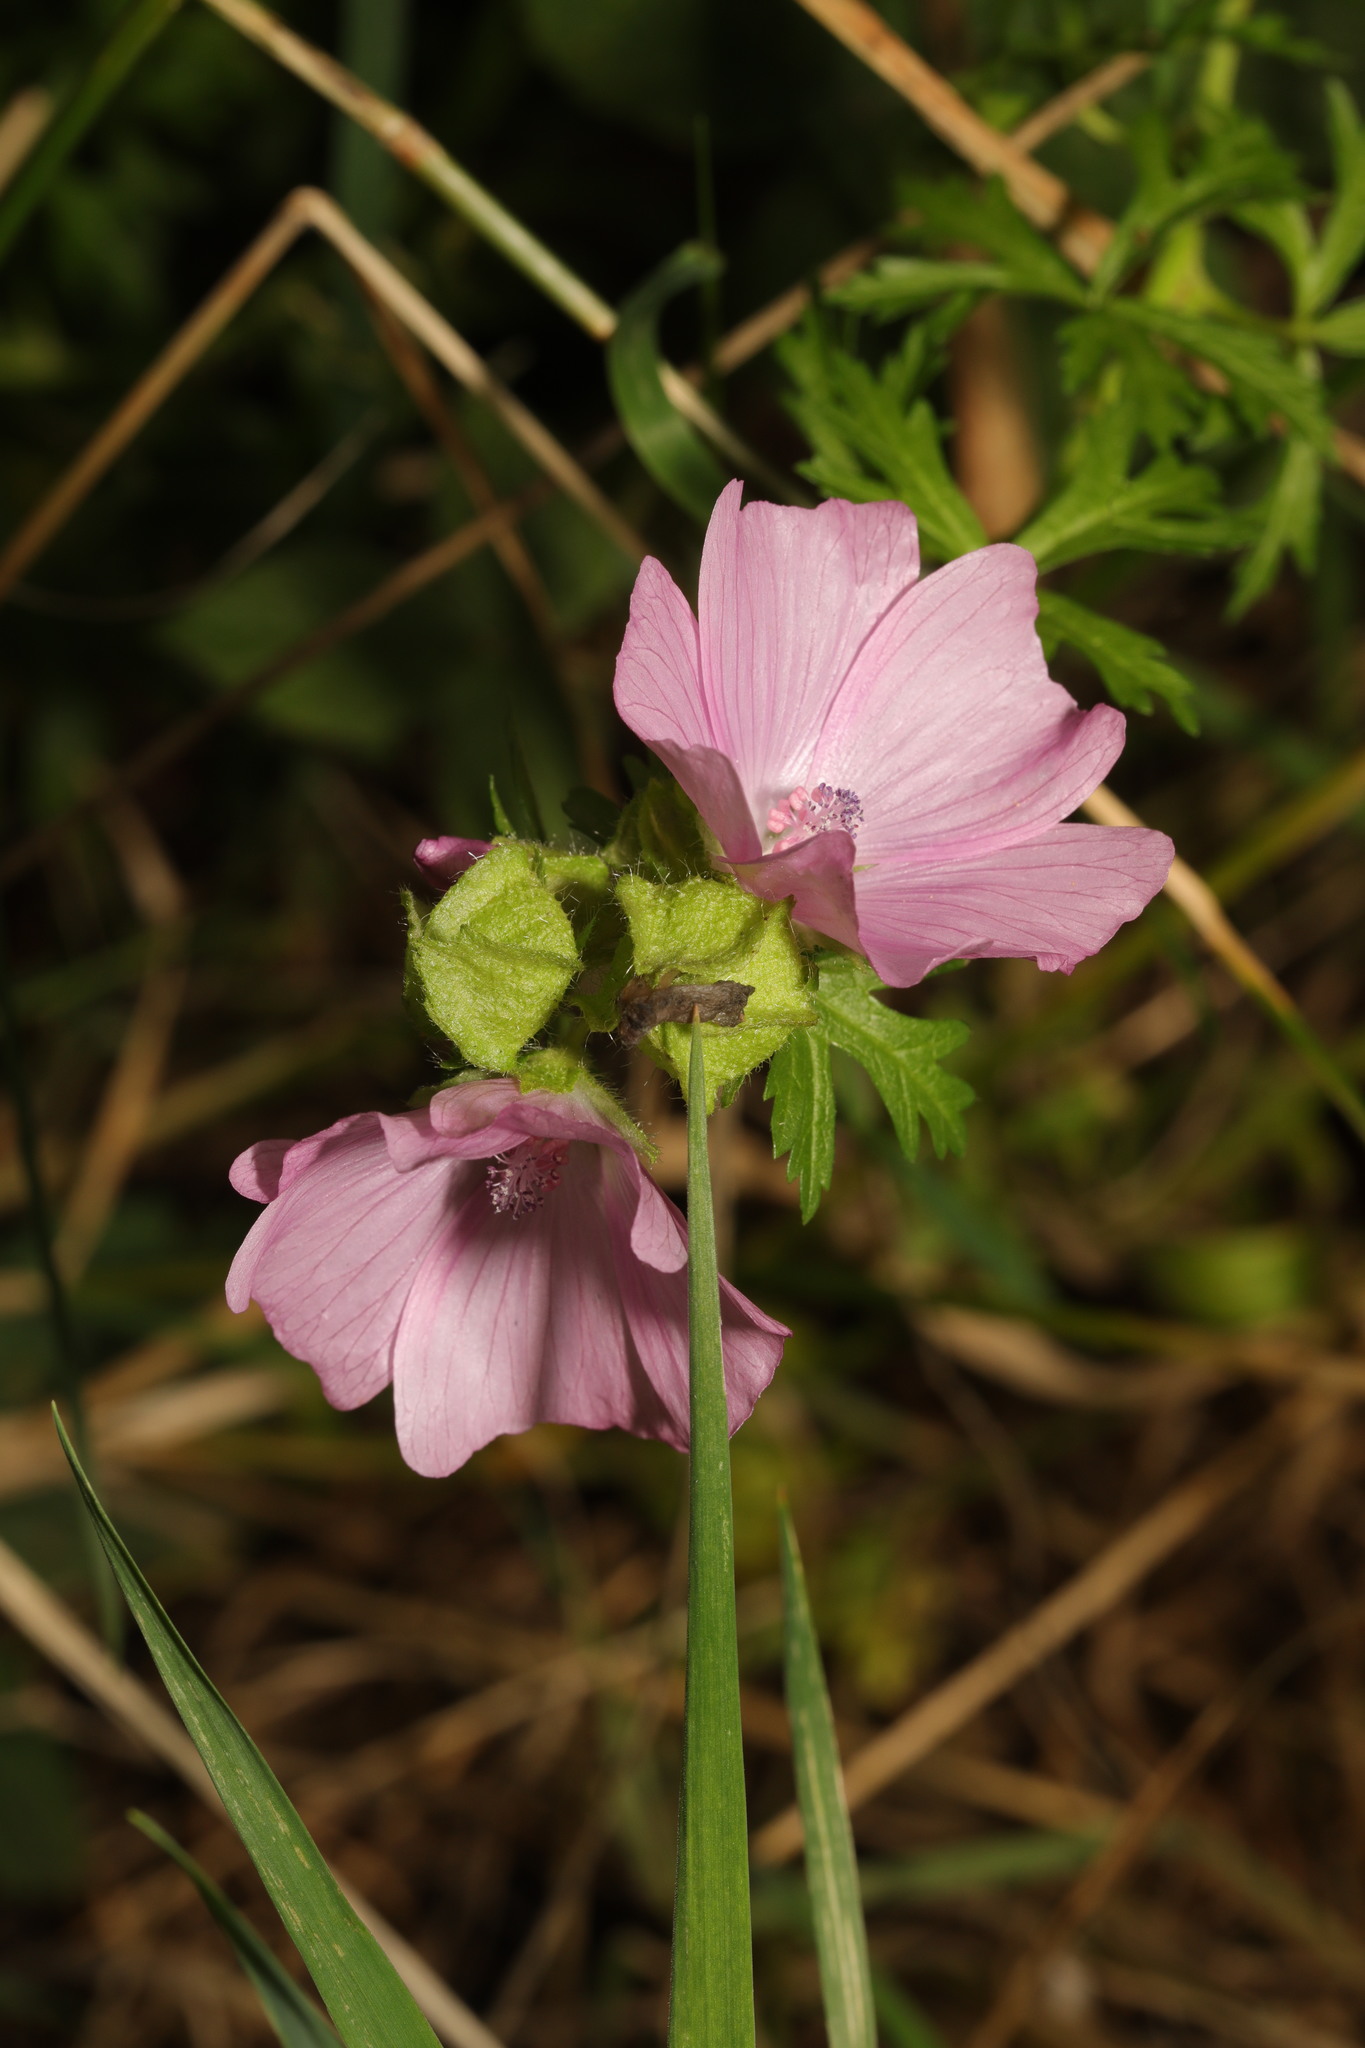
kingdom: Plantae
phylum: Tracheophyta
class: Magnoliopsida
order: Malvales
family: Malvaceae
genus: Malva
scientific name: Malva moschata
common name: Musk mallow
